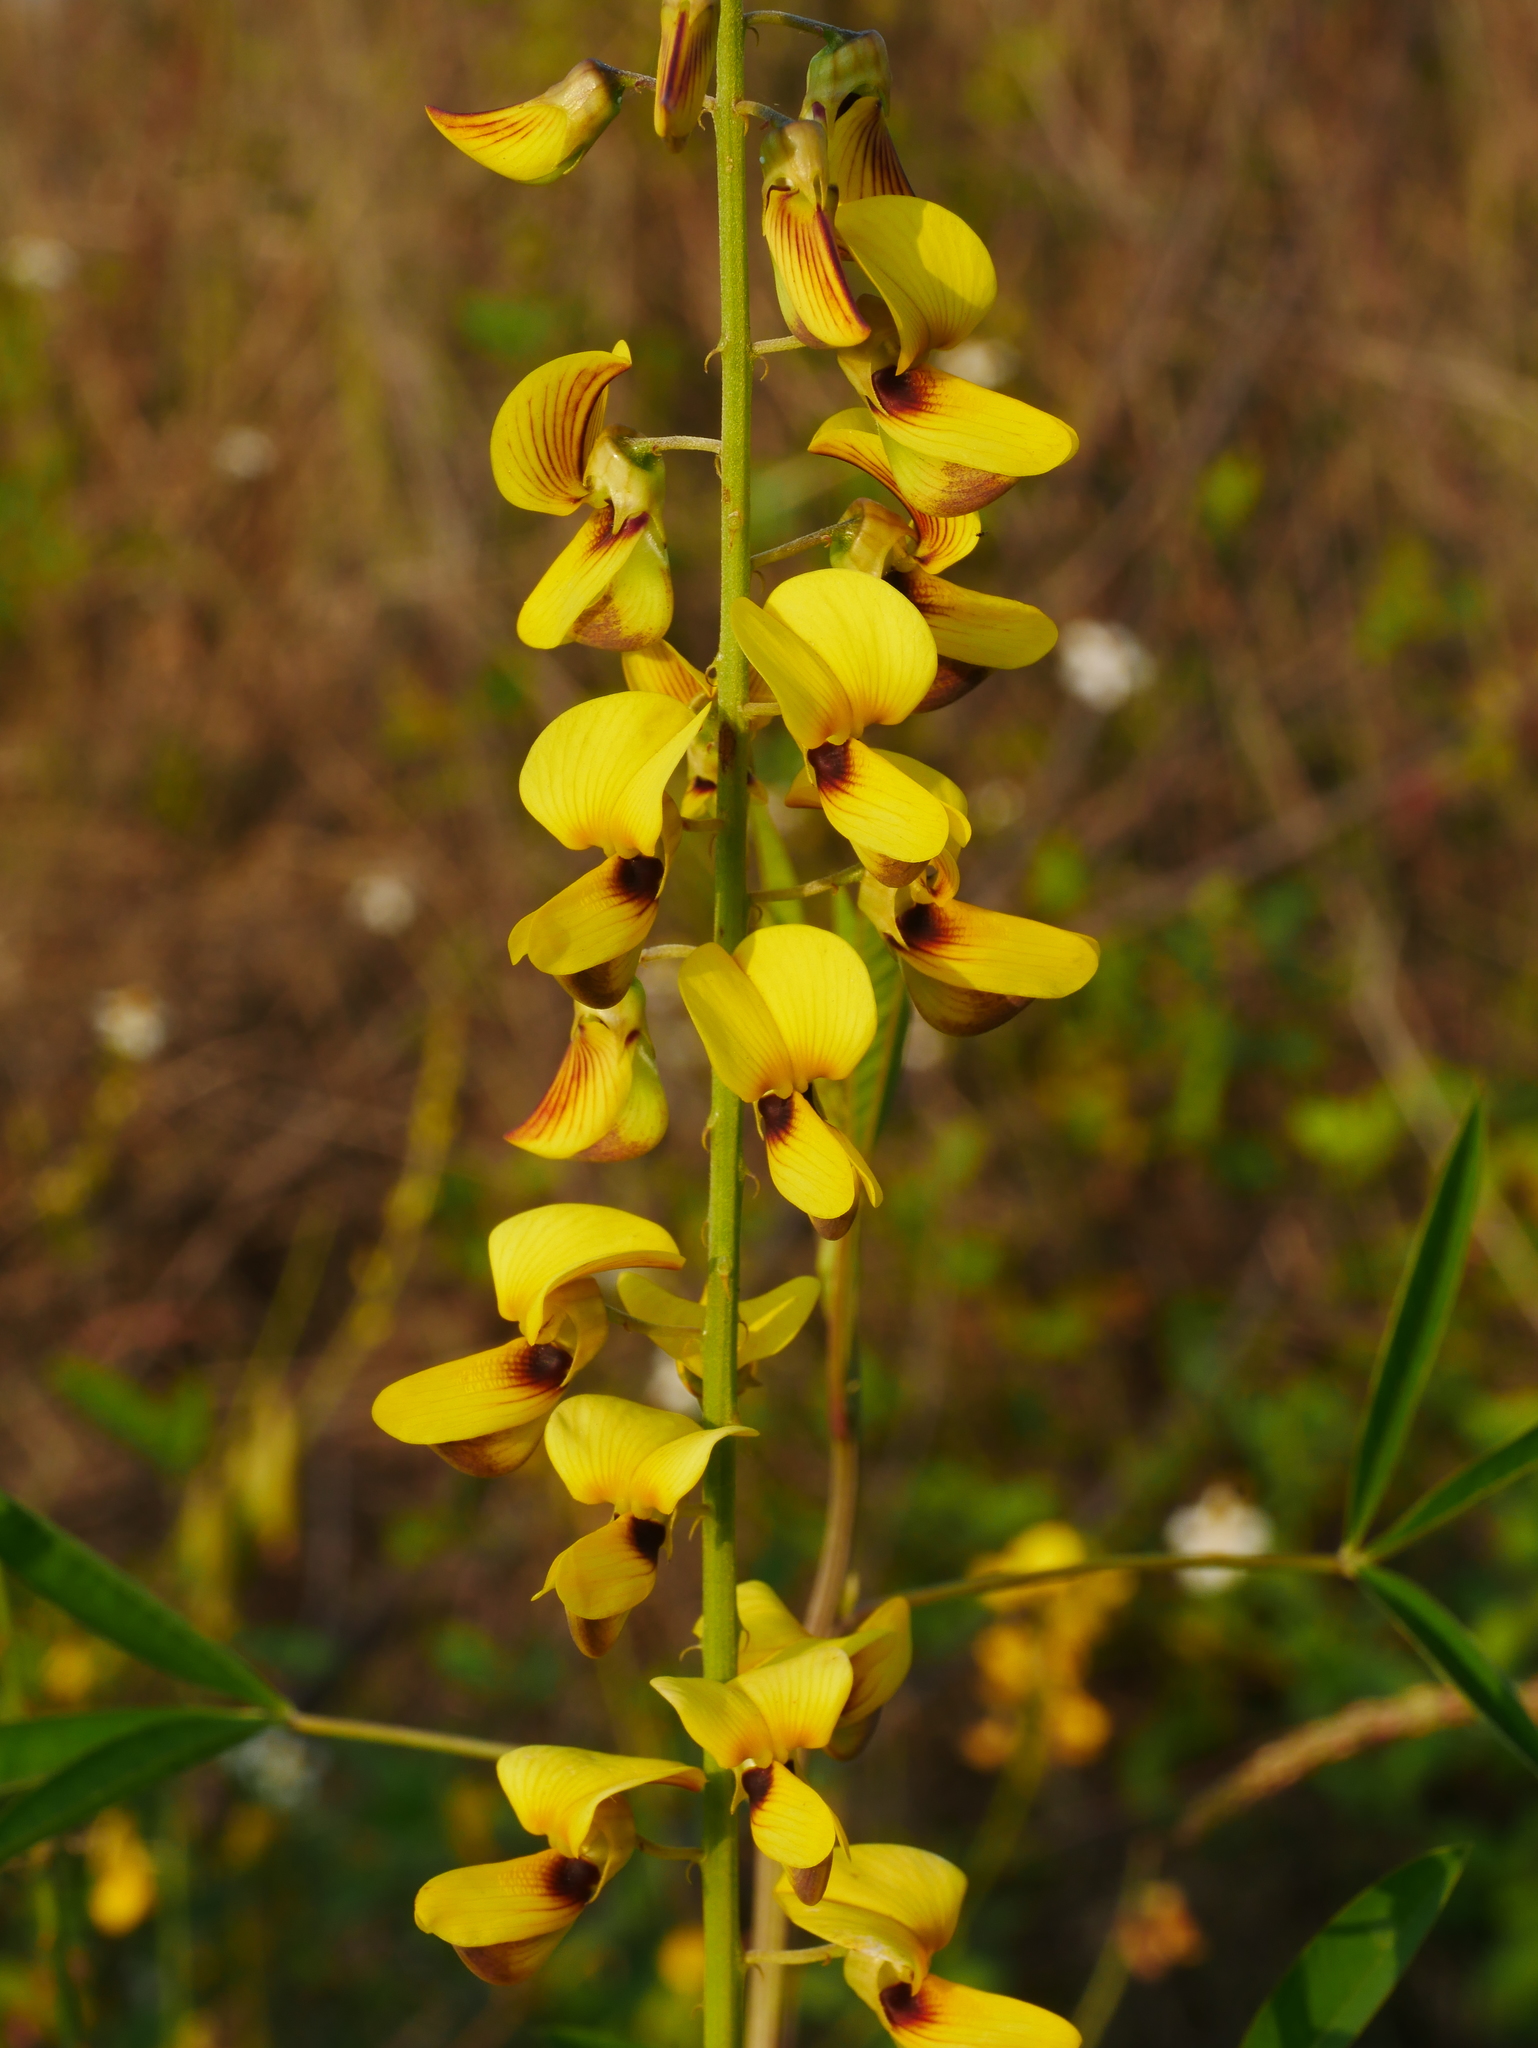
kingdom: Plantae
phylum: Tracheophyta
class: Magnoliopsida
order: Fabales
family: Fabaceae
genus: Crotalaria
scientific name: Crotalaria trichotoma
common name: West indian rattlebox
